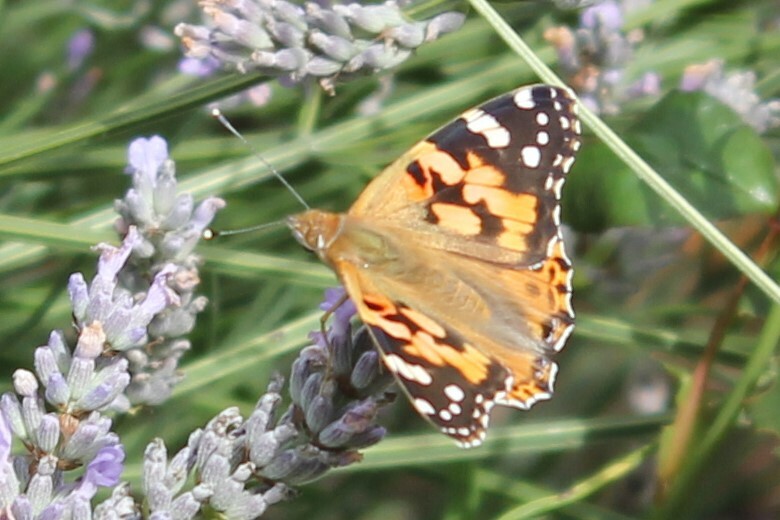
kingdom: Animalia
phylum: Arthropoda
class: Insecta
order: Lepidoptera
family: Nymphalidae
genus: Vanessa
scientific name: Vanessa cardui
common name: Painted lady
